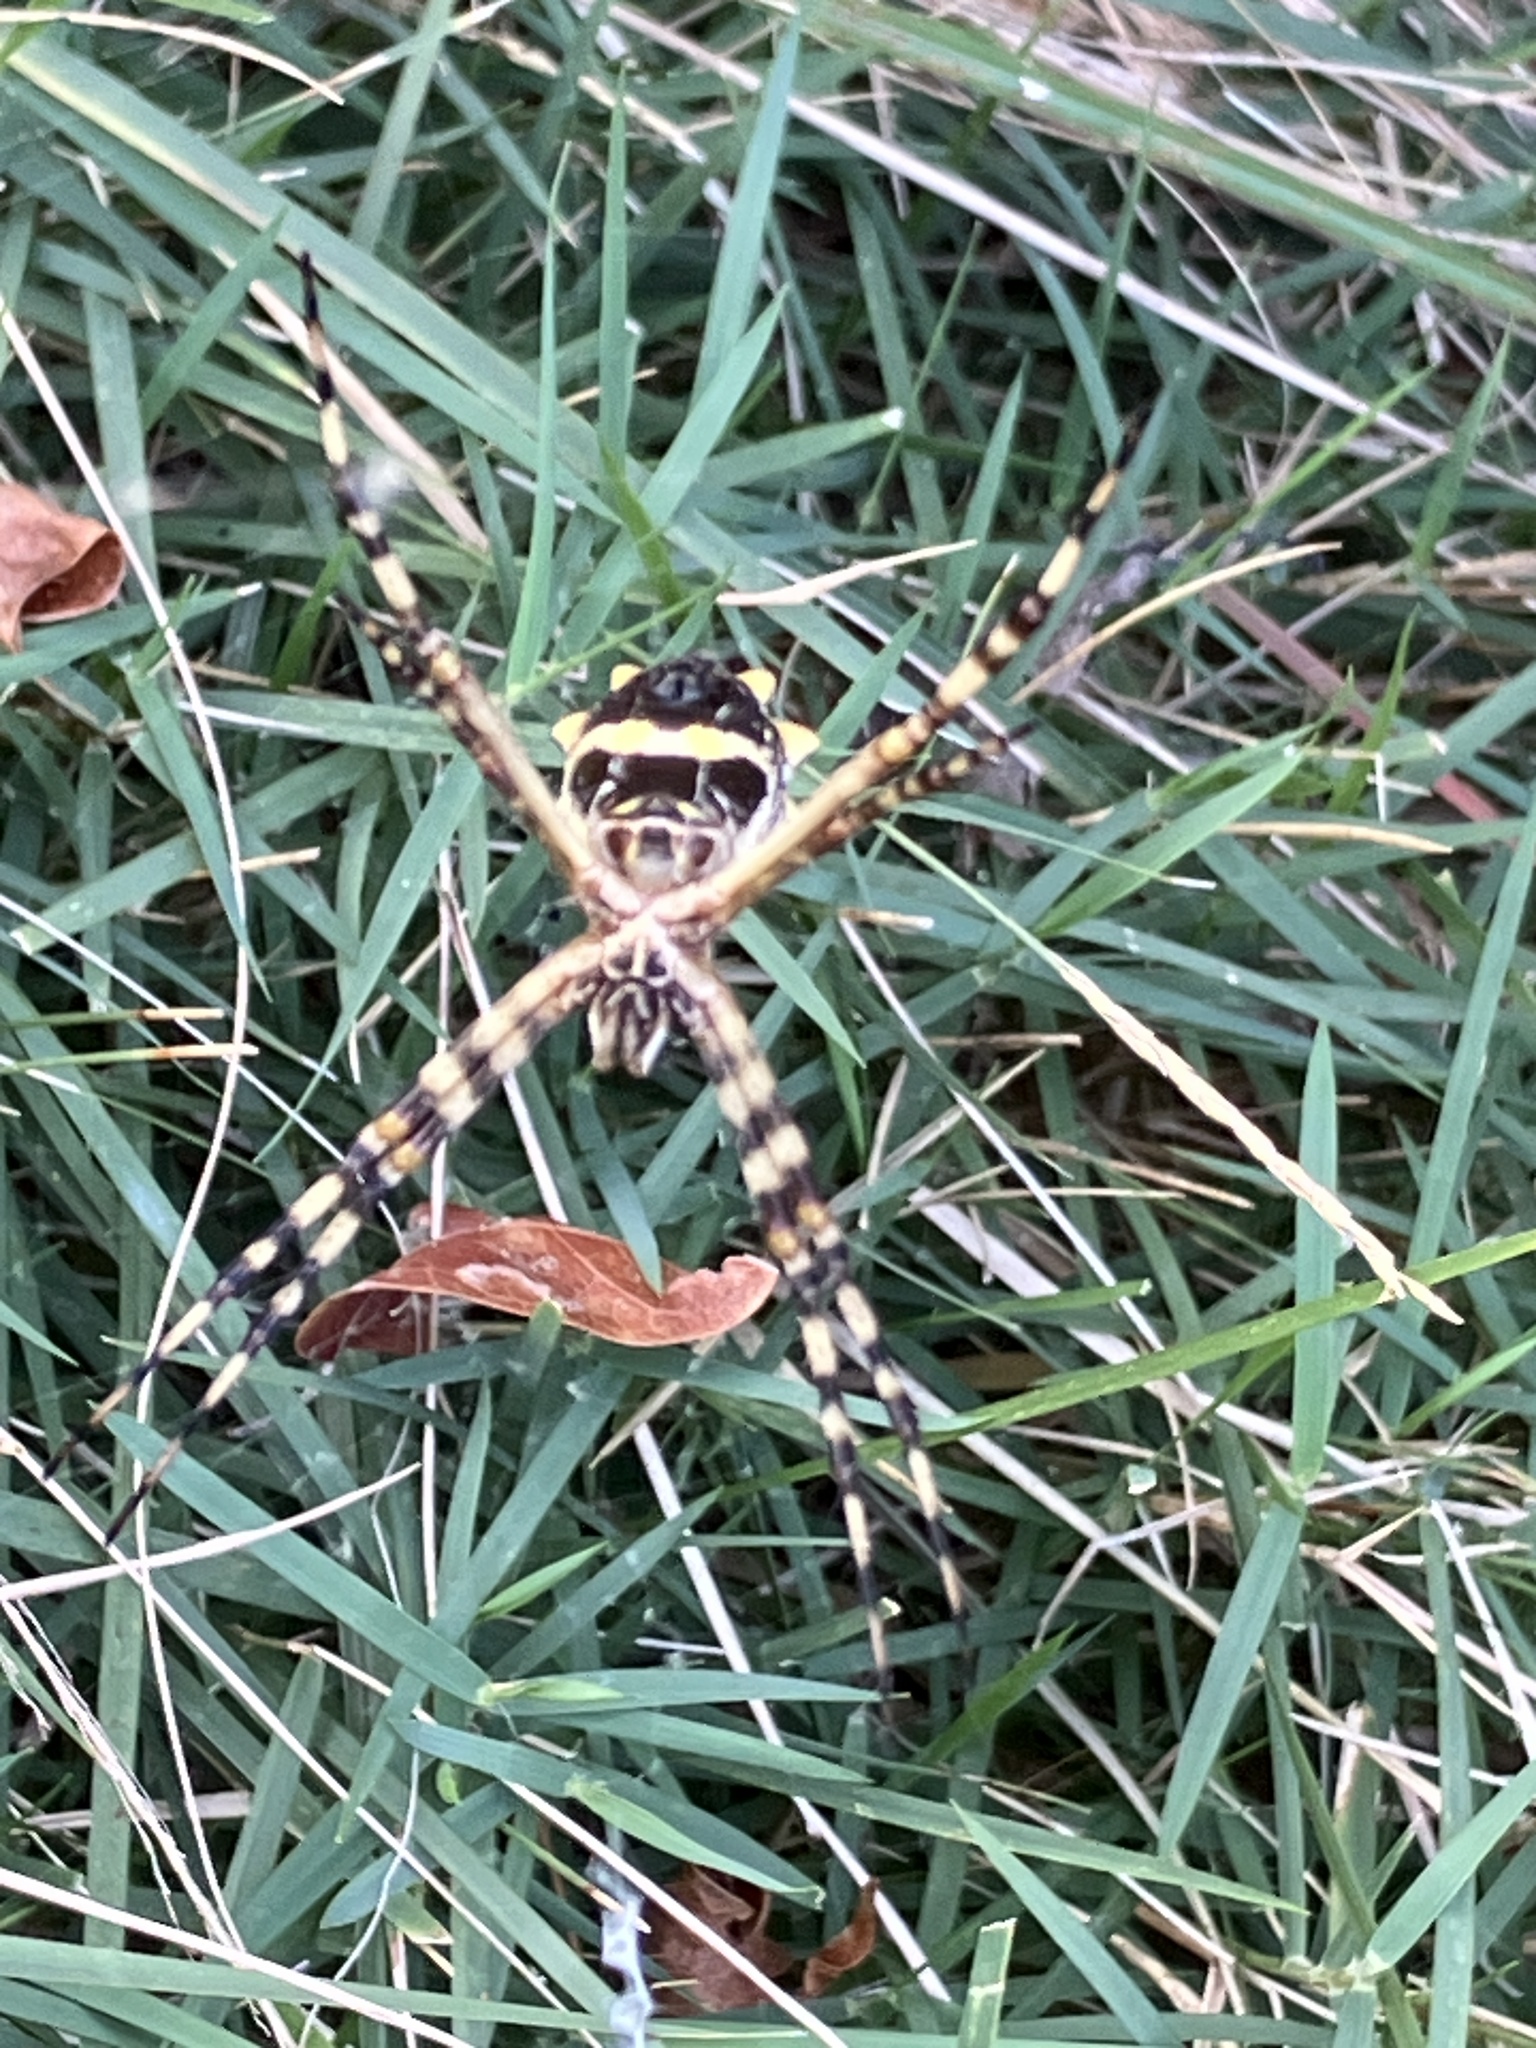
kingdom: Animalia
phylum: Arthropoda
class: Arachnida
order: Araneae
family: Araneidae
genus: Argiope
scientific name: Argiope argentata
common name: Orb weavers
